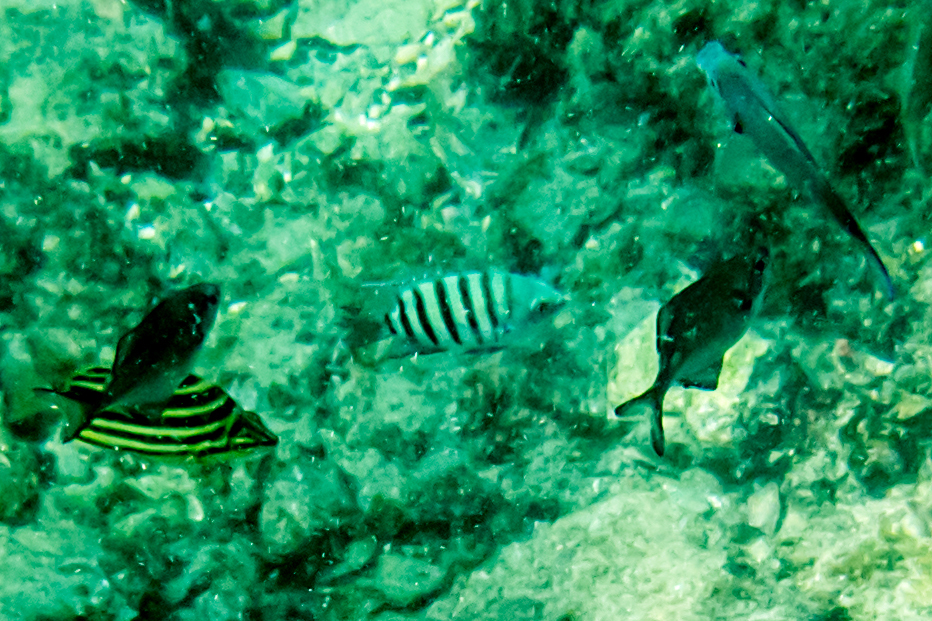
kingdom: Animalia
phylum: Chordata
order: Perciformes
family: Pomacentridae
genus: Abudefduf
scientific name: Abudefduf bengalensis
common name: Bengal sergeant
